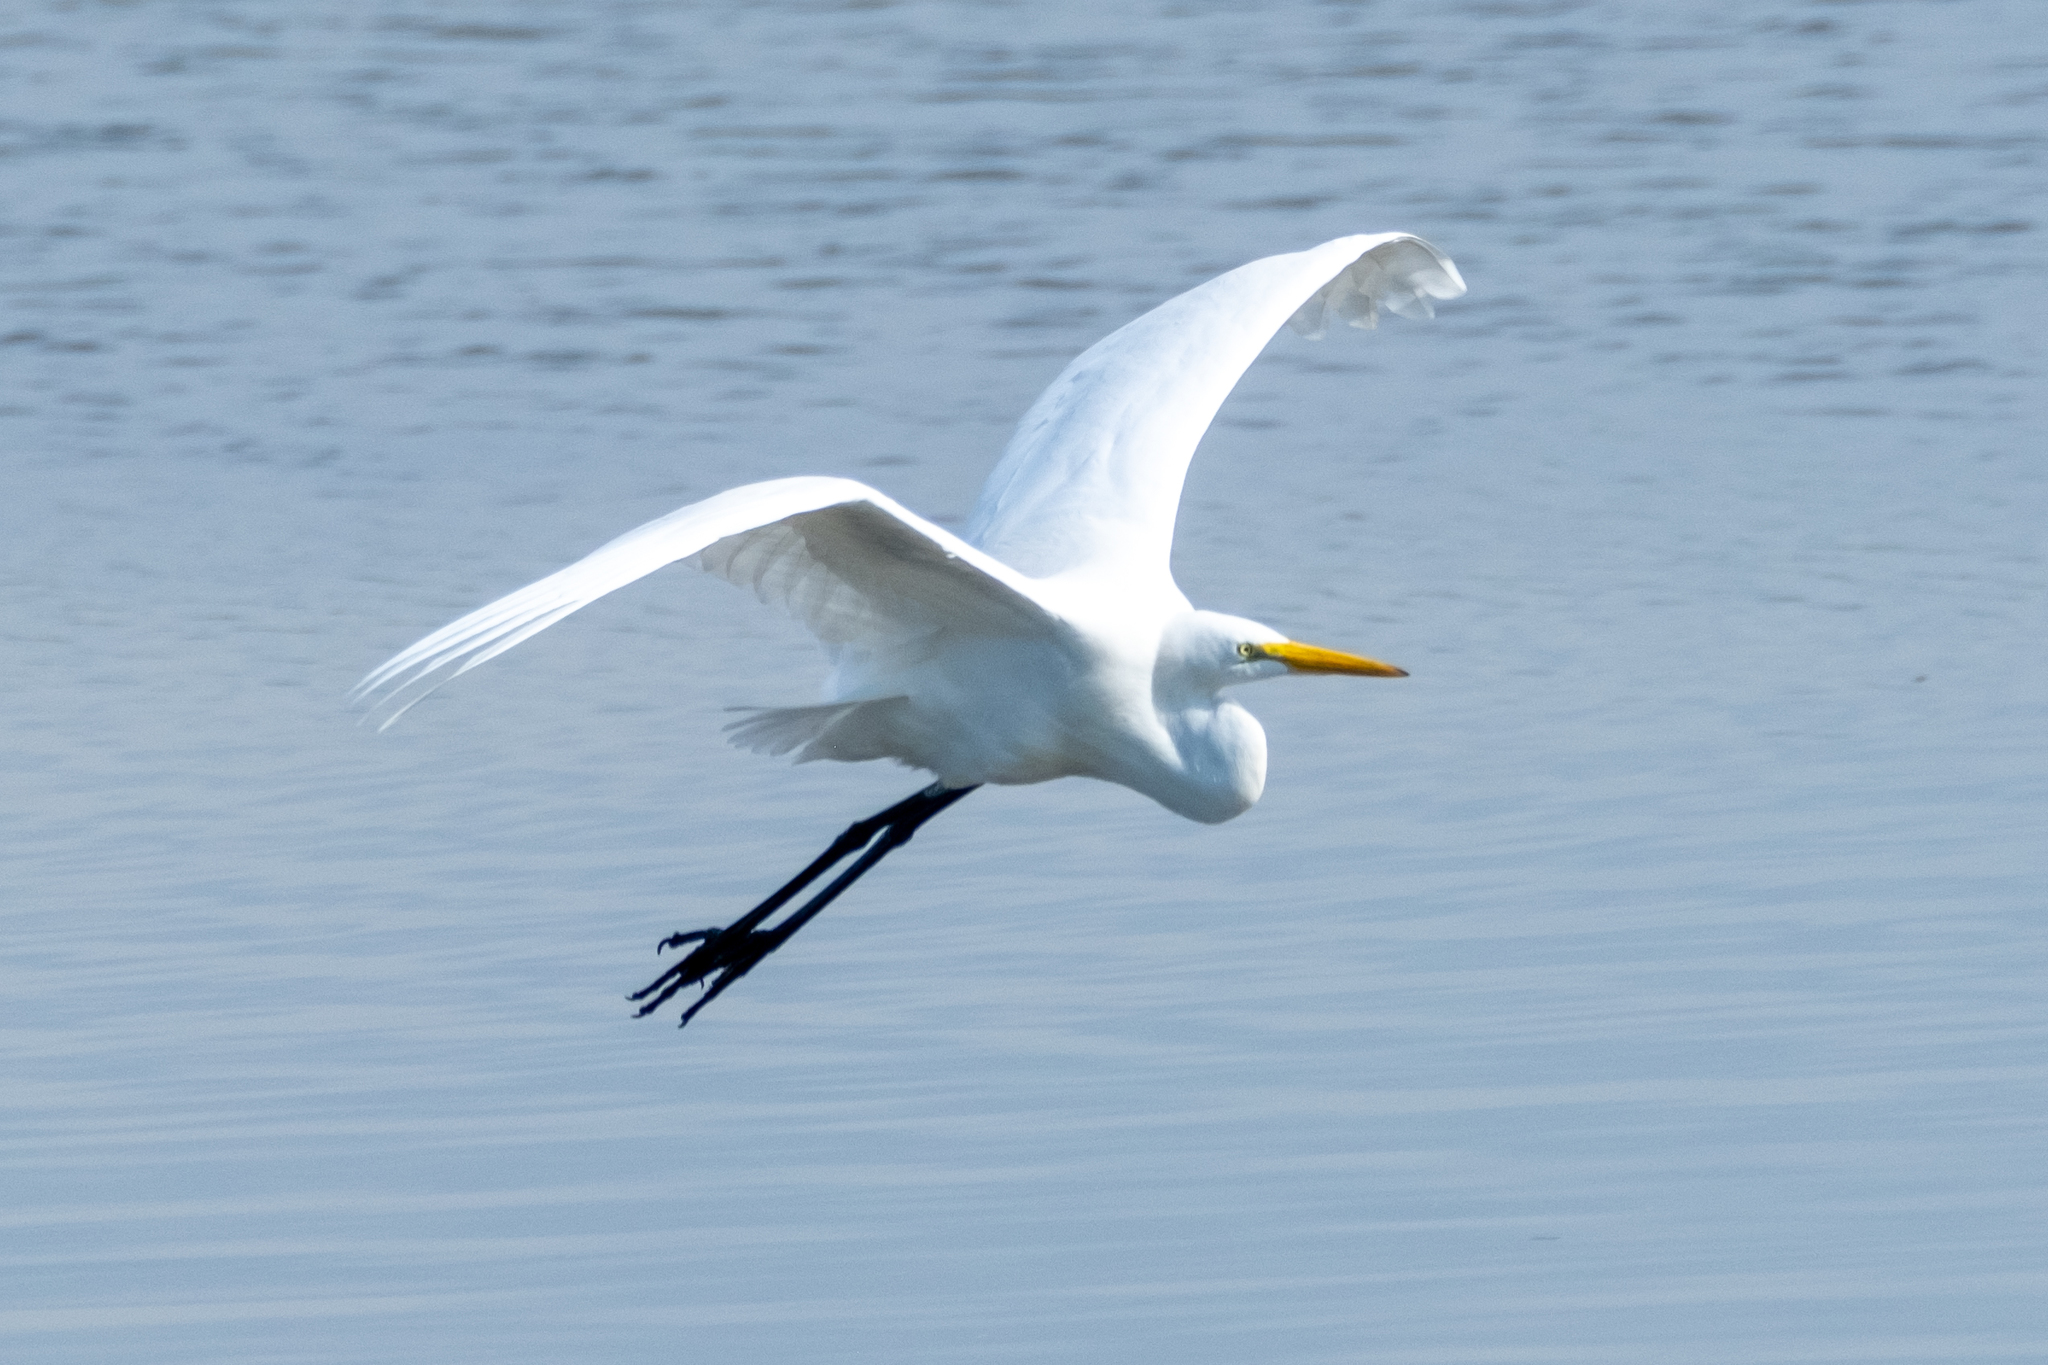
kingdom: Animalia
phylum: Chordata
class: Aves
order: Pelecaniformes
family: Ardeidae
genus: Ardea
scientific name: Ardea alba
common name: Great egret
